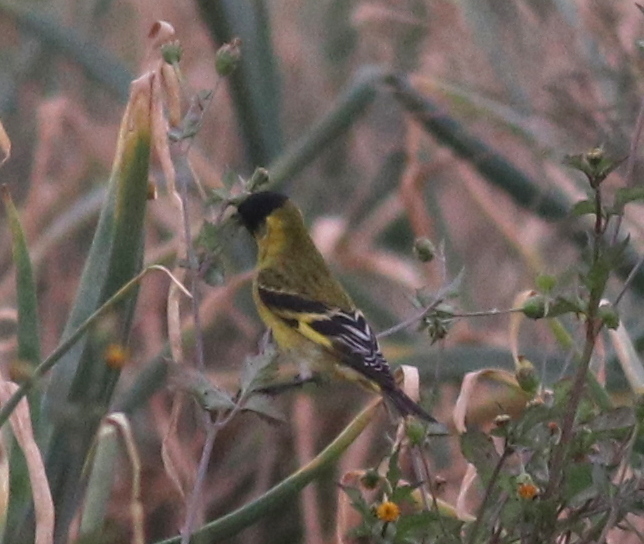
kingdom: Animalia
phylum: Chordata
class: Aves
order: Passeriformes
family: Fringillidae
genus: Spinus
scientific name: Spinus magellanicus
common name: Hooded siskin
